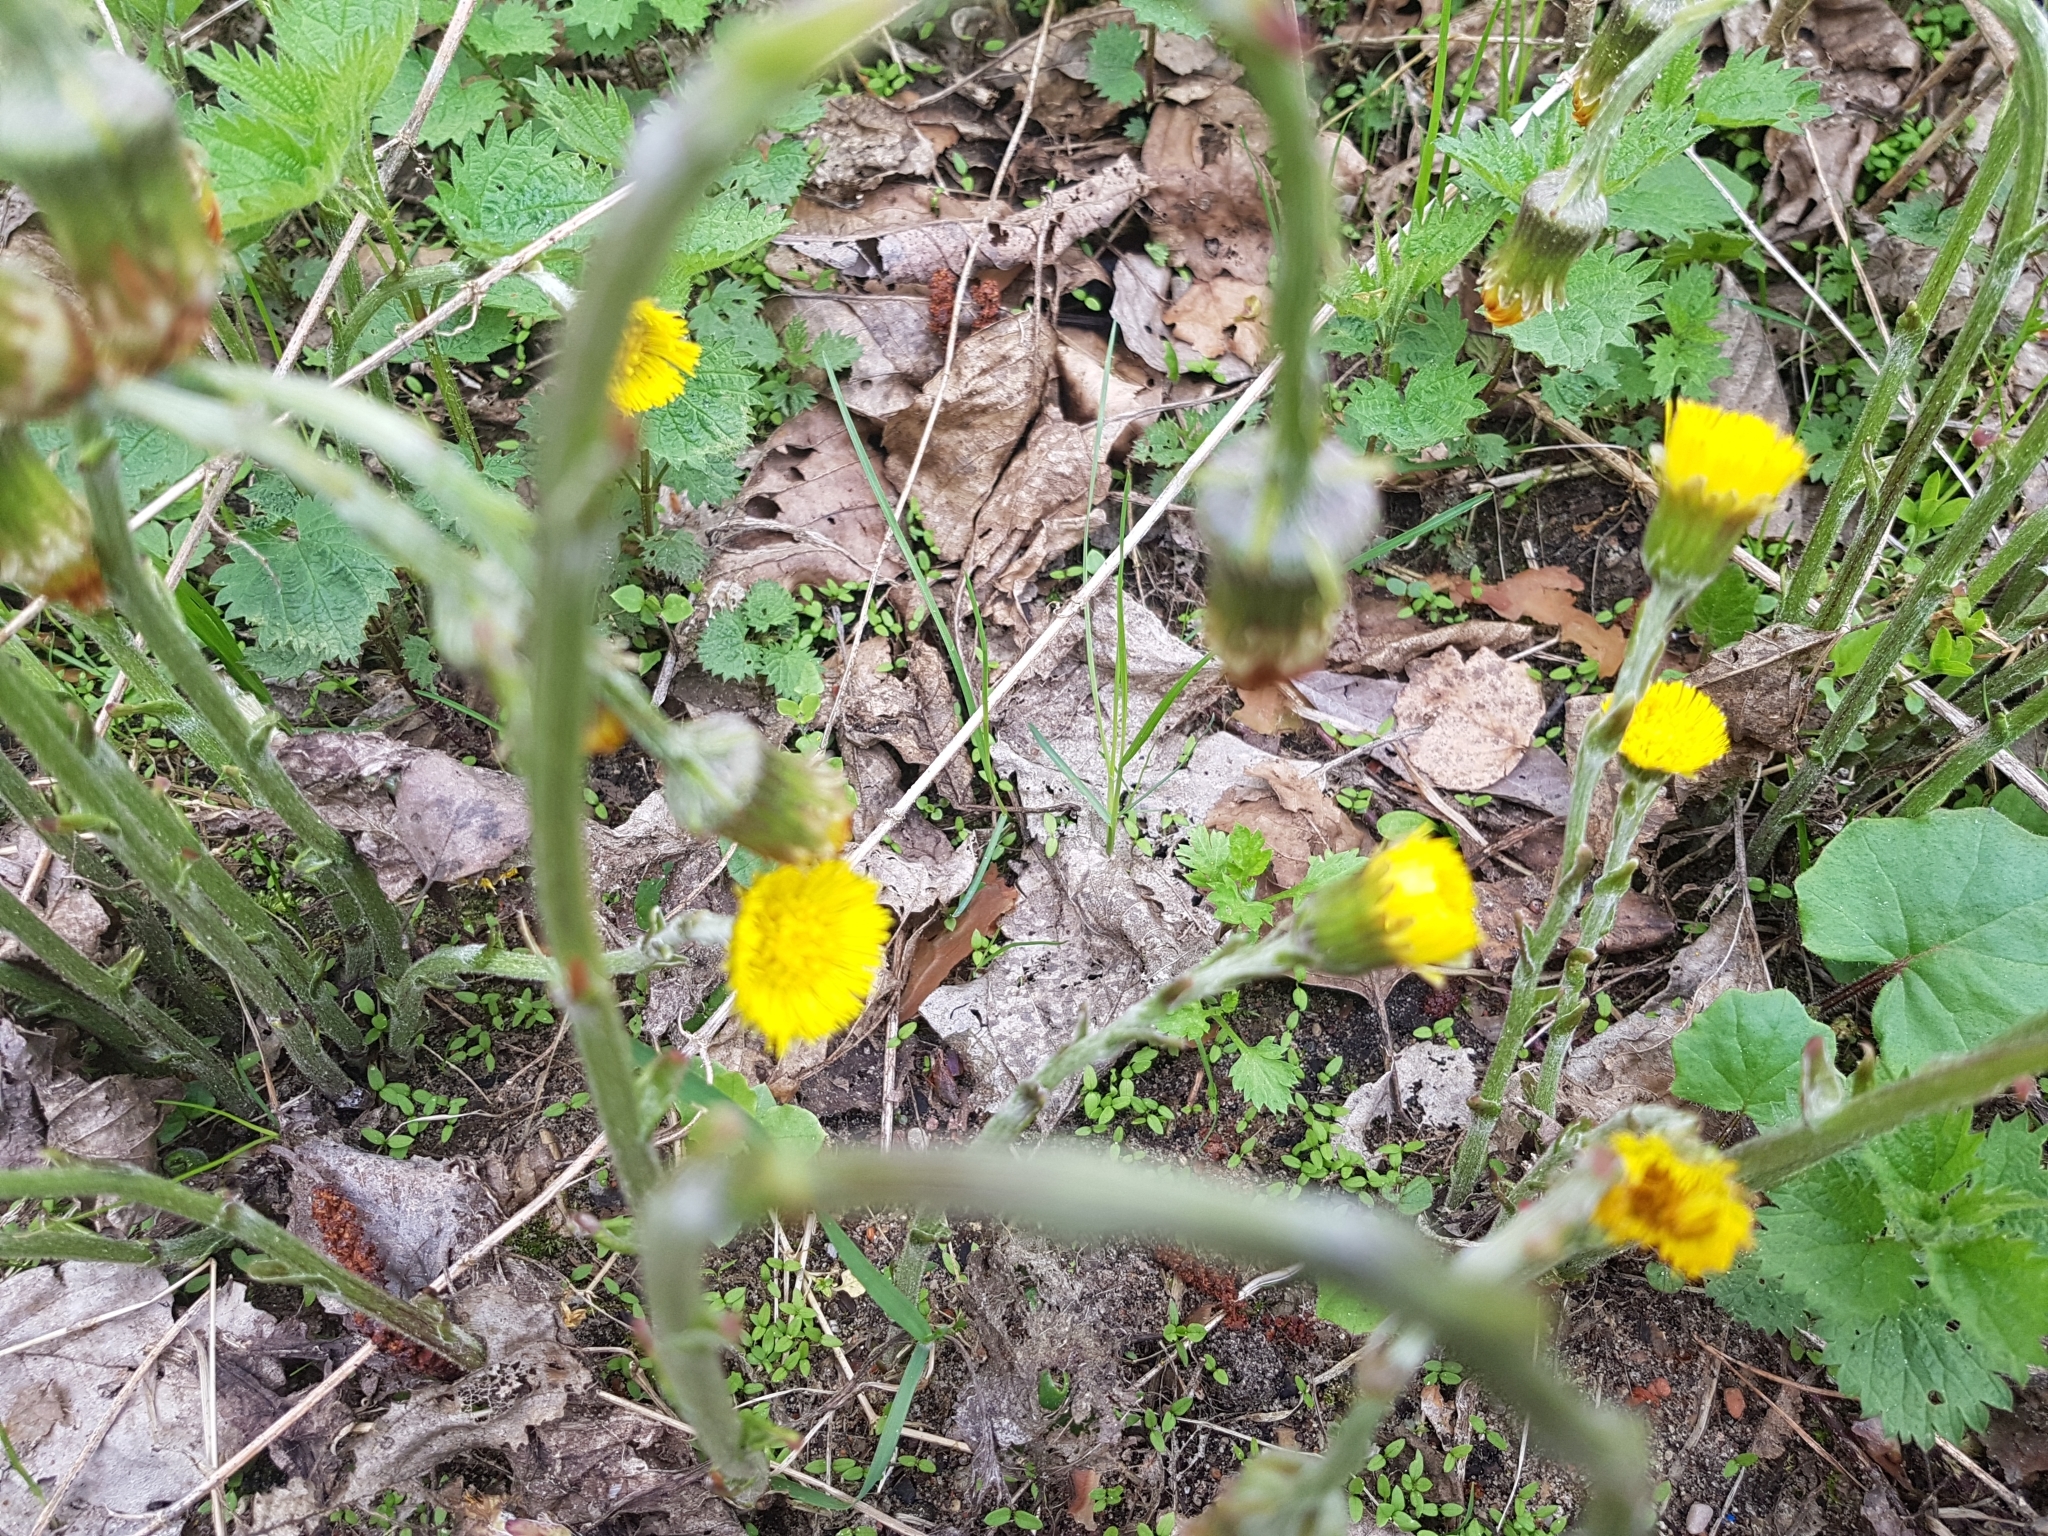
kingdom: Plantae
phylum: Tracheophyta
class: Magnoliopsida
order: Asterales
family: Asteraceae
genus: Tussilago
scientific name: Tussilago farfara
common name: Coltsfoot
